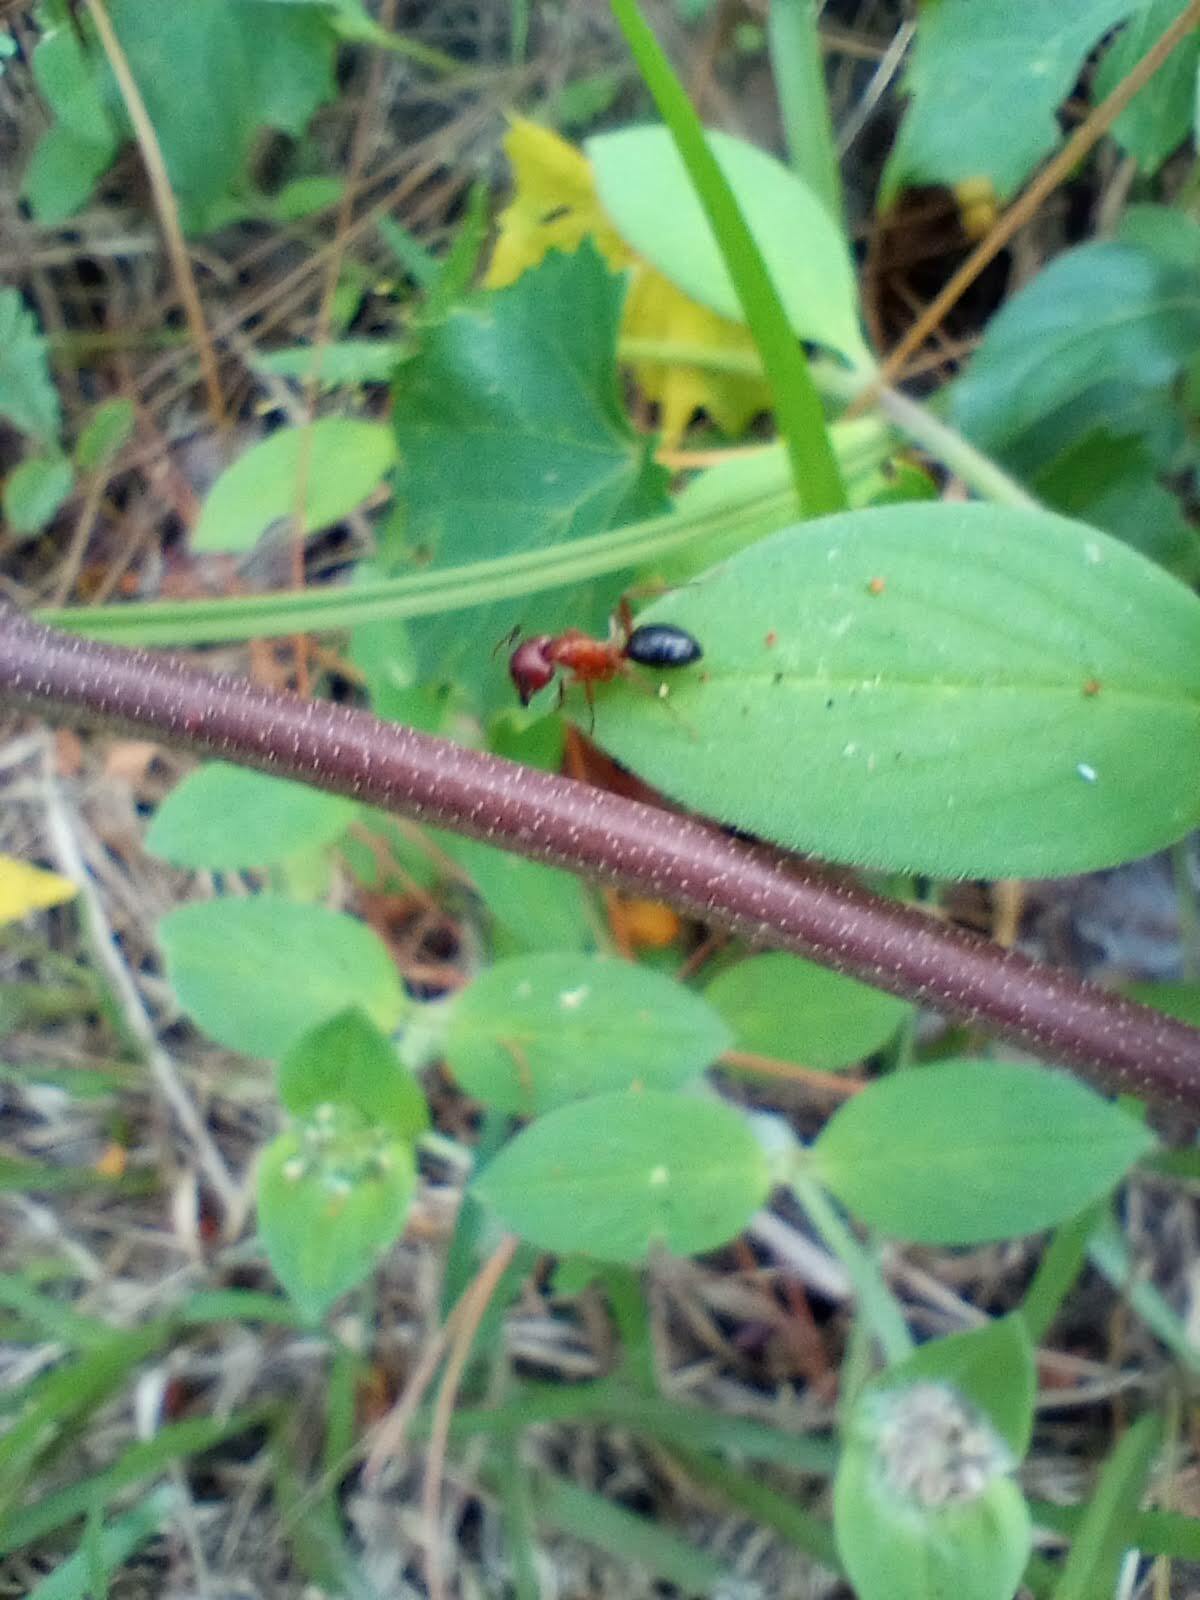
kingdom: Animalia
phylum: Arthropoda
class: Insecta
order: Hymenoptera
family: Formicidae
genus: Camponotus
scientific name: Camponotus floridanus
